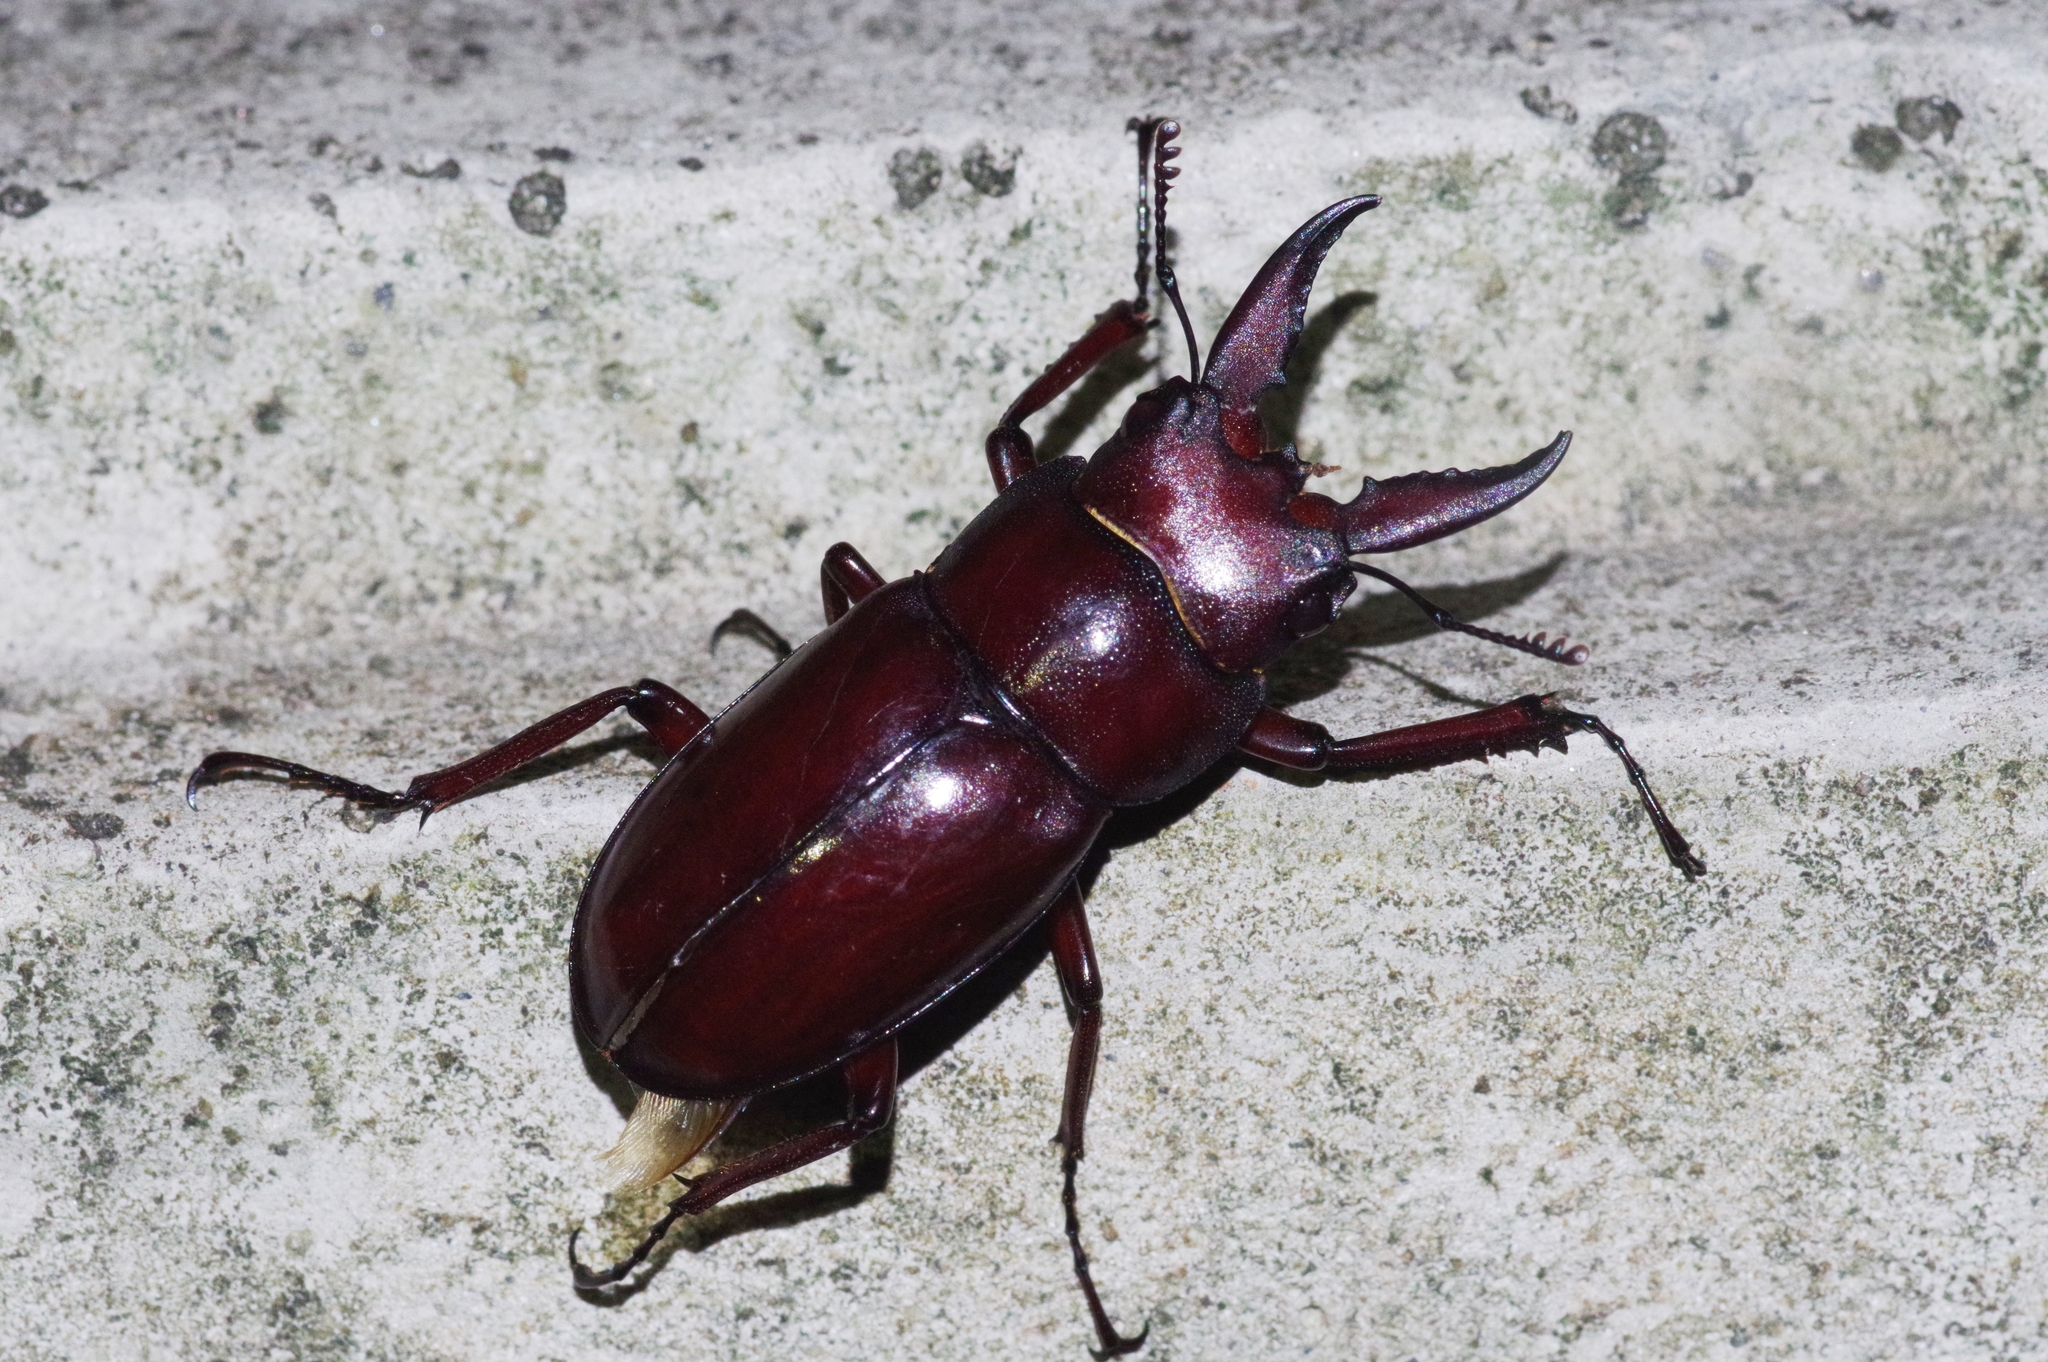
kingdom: Animalia
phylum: Arthropoda
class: Insecta
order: Coleoptera
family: Lucanidae
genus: Prosopocoilus
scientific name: Prosopocoilus dissimilis
